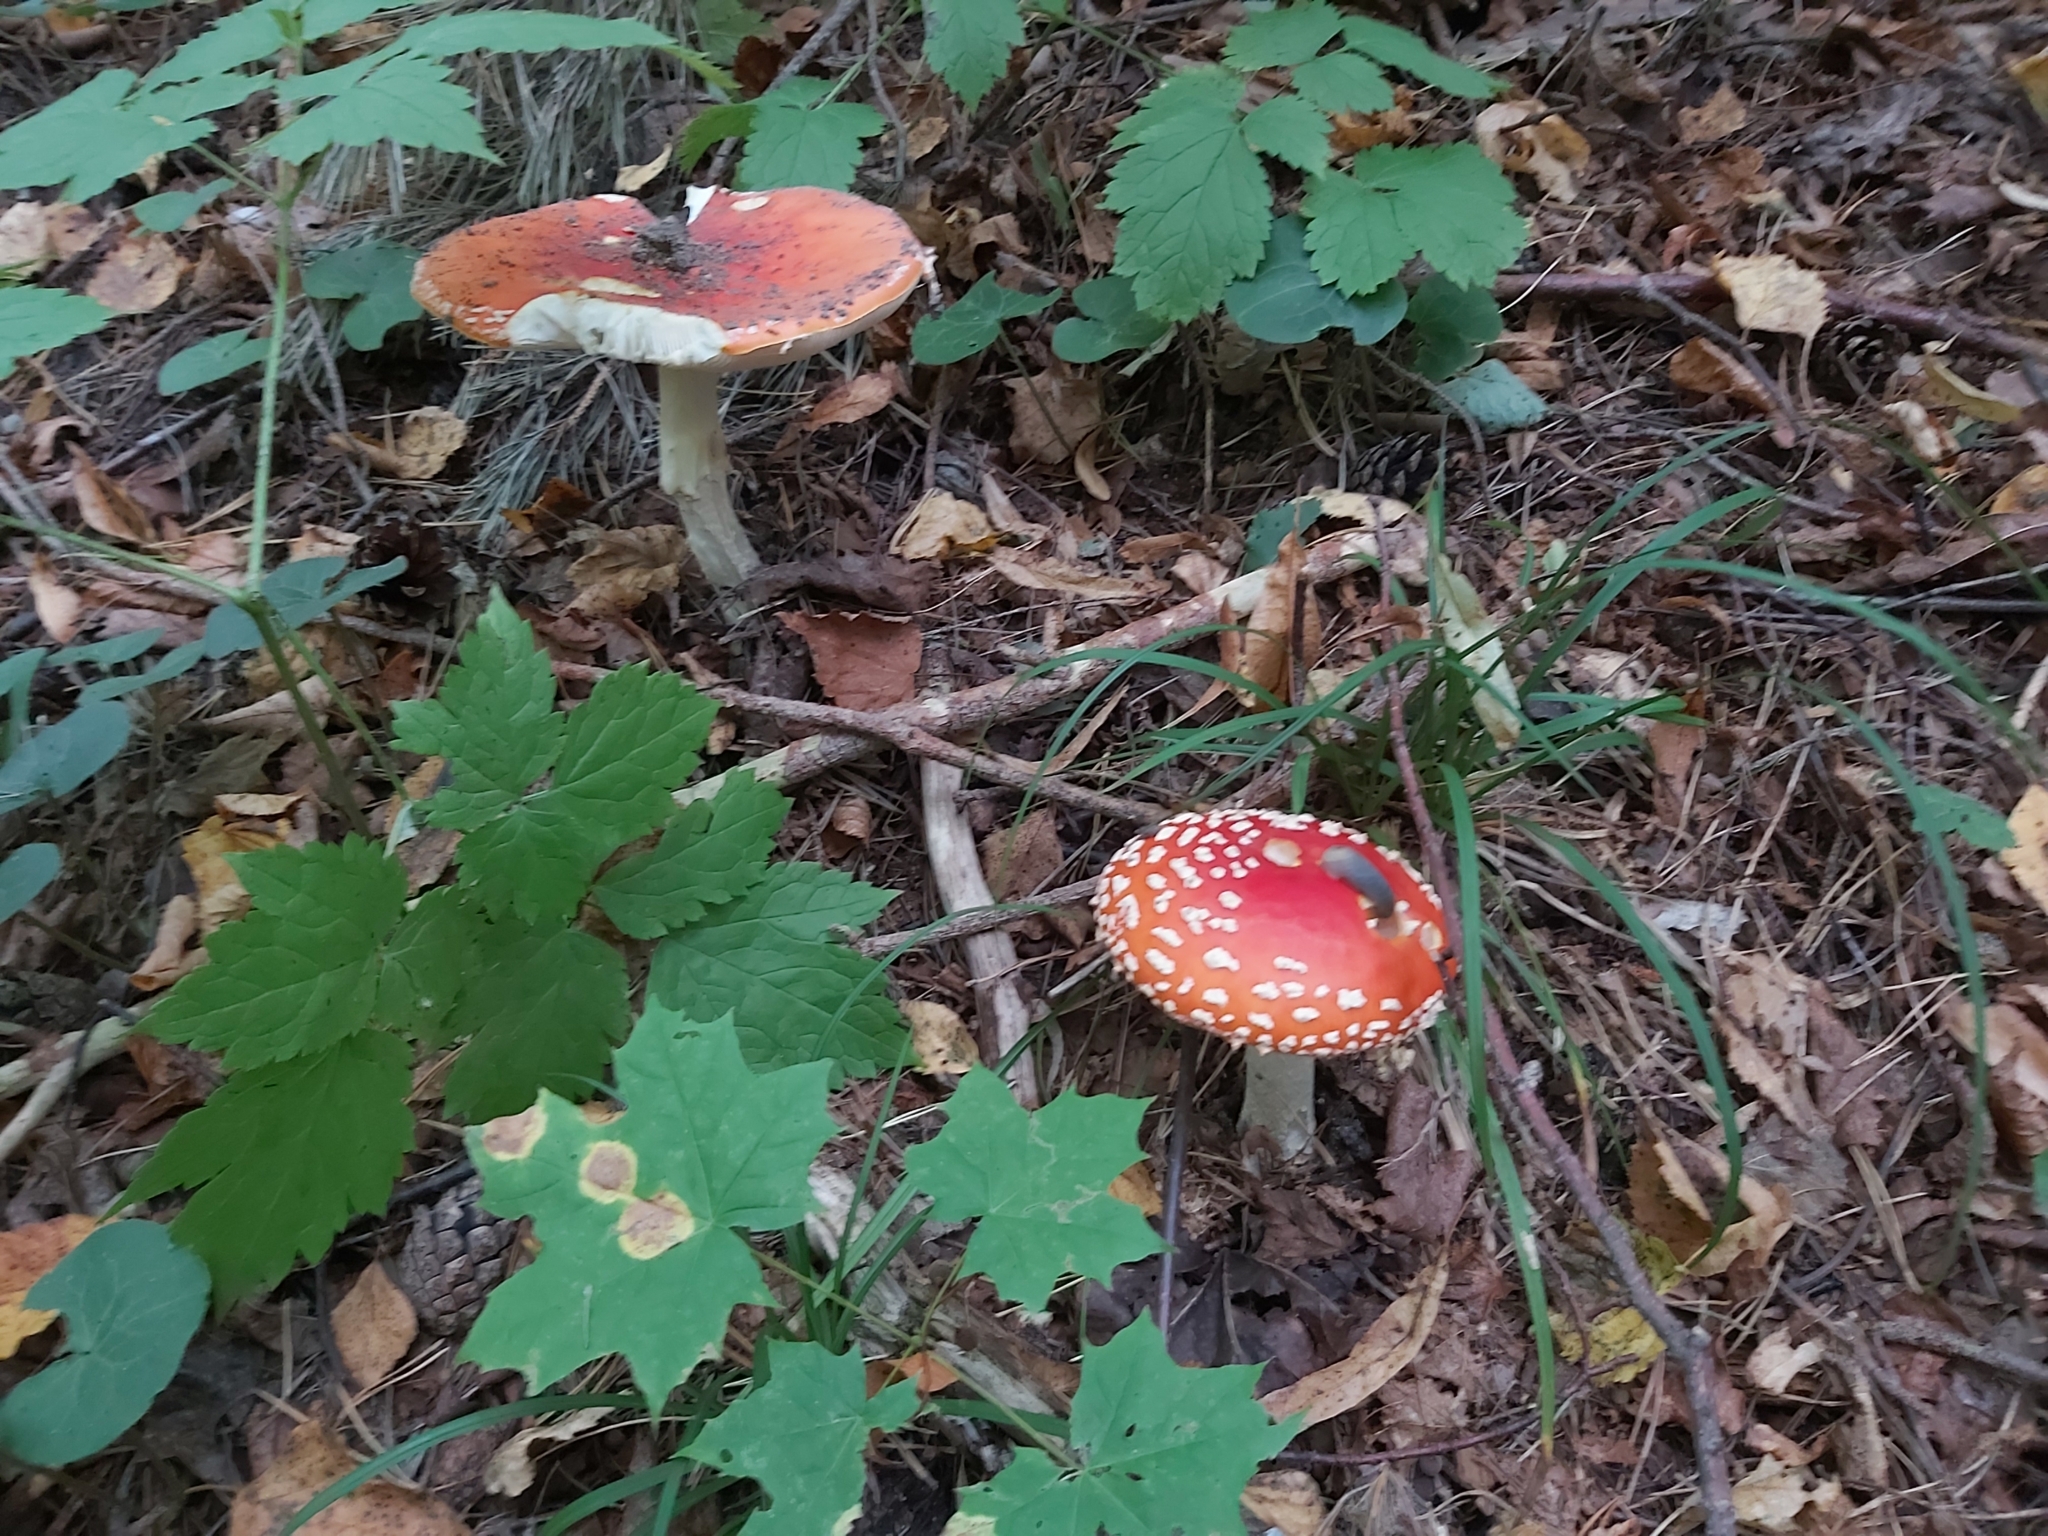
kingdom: Fungi
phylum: Basidiomycota
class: Agaricomycetes
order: Agaricales
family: Amanitaceae
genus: Amanita
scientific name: Amanita muscaria
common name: Fly agaric
